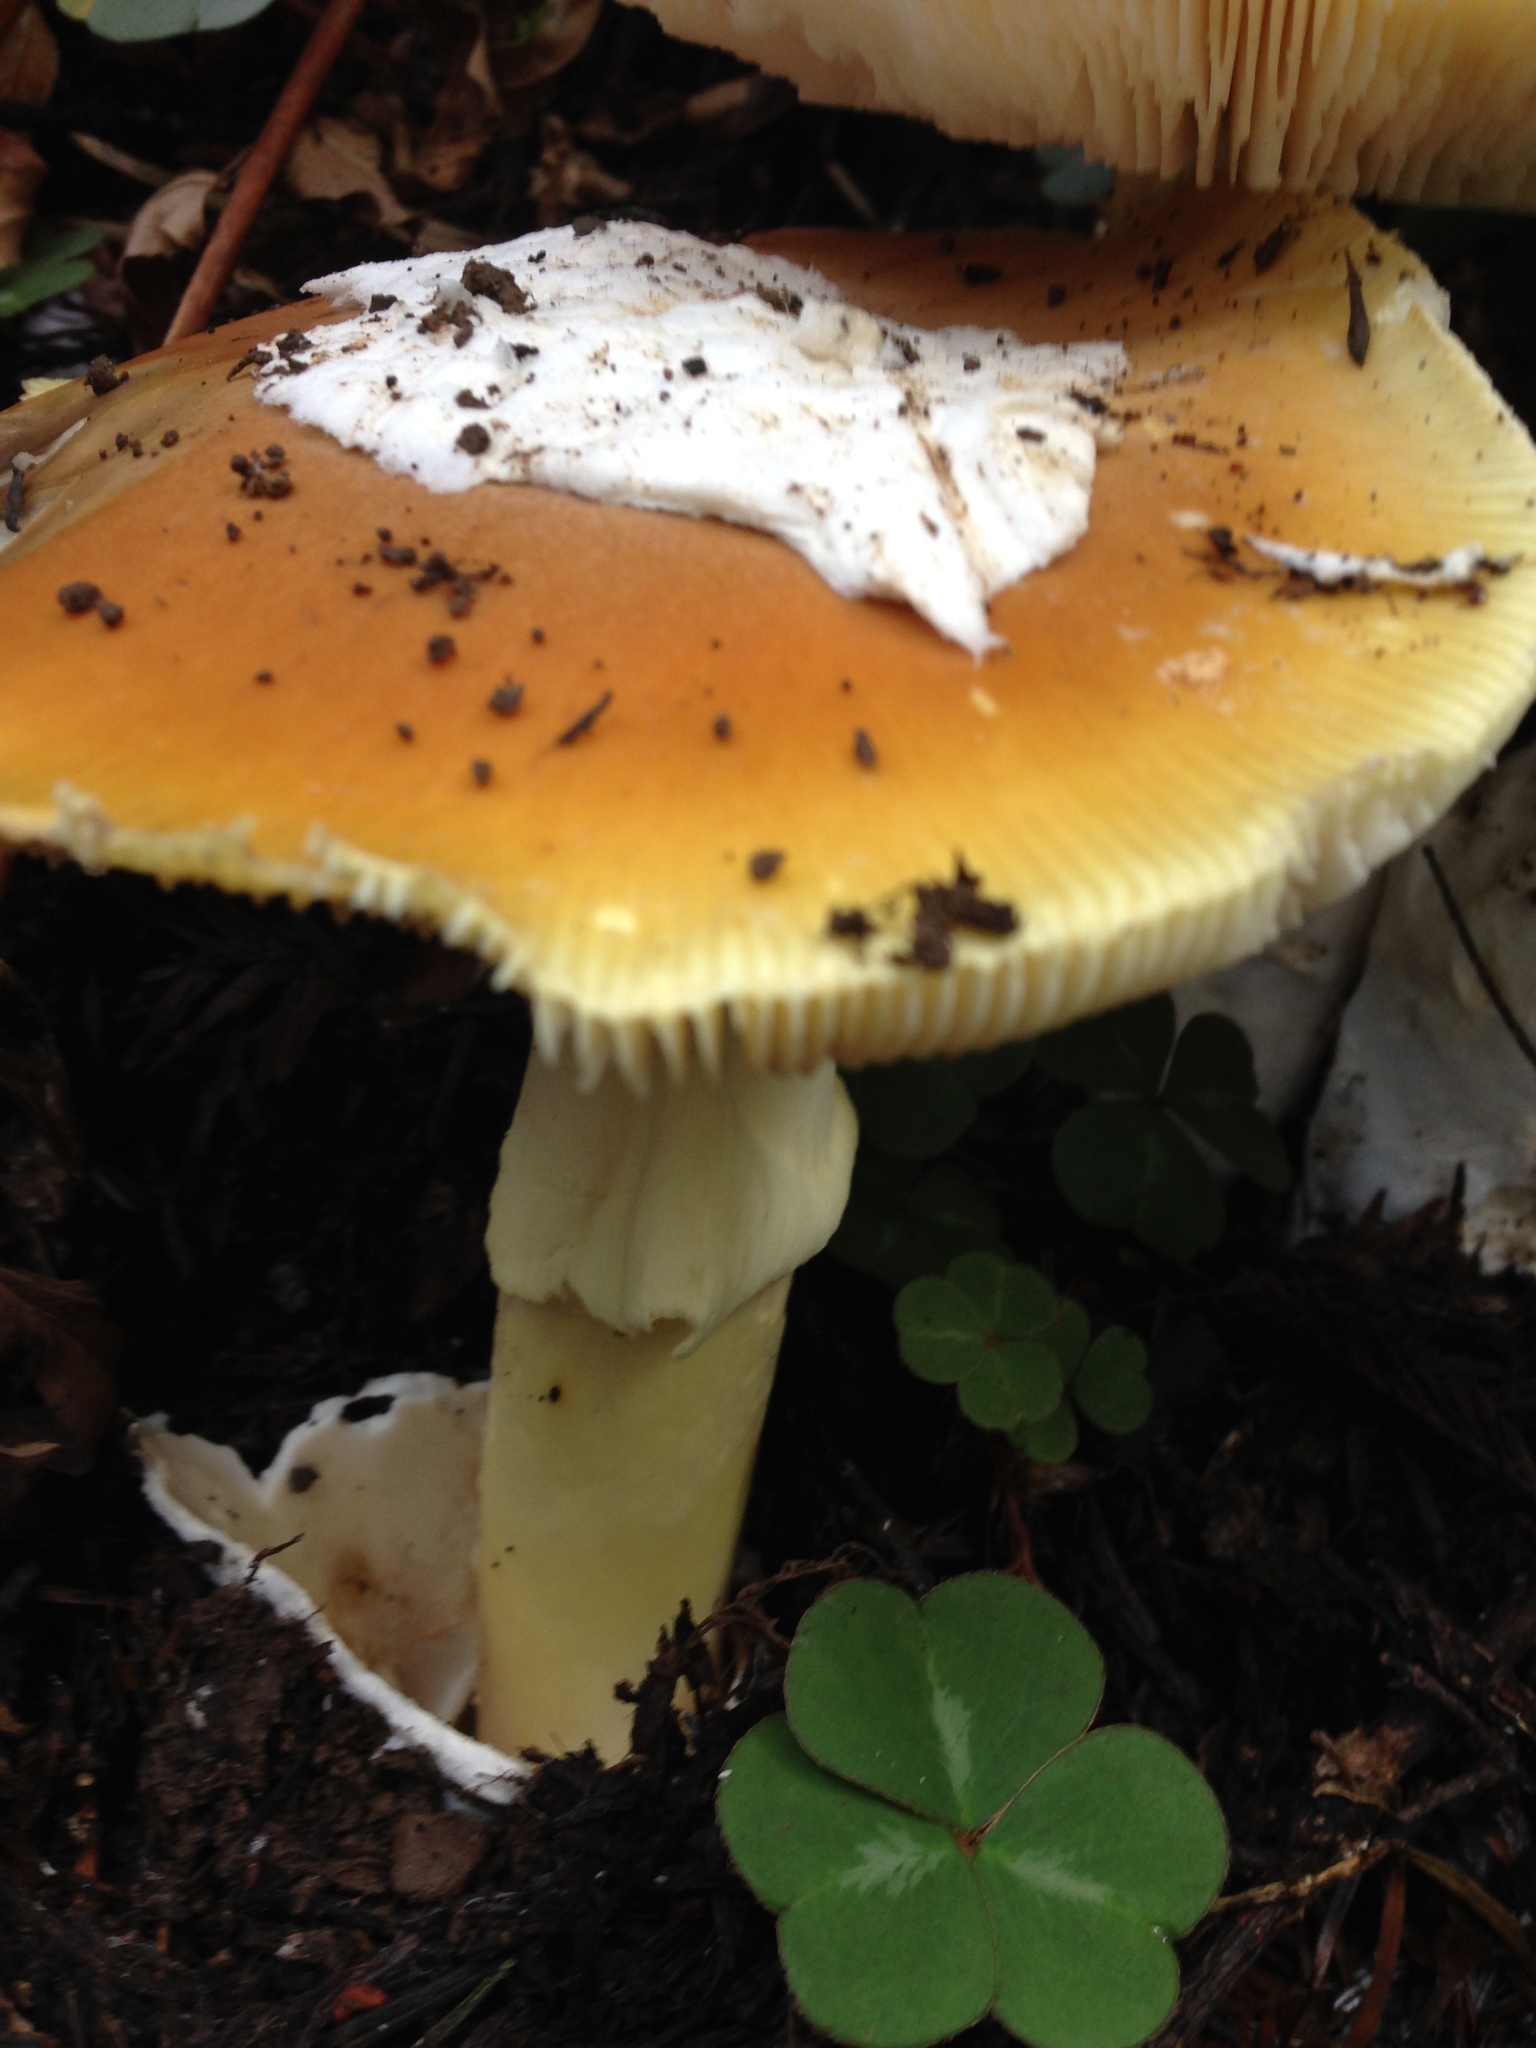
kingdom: Fungi
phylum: Basidiomycota
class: Agaricomycetes
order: Agaricales
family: Amanitaceae
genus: Amanita
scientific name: Amanita calyptroderma
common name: Coccora
